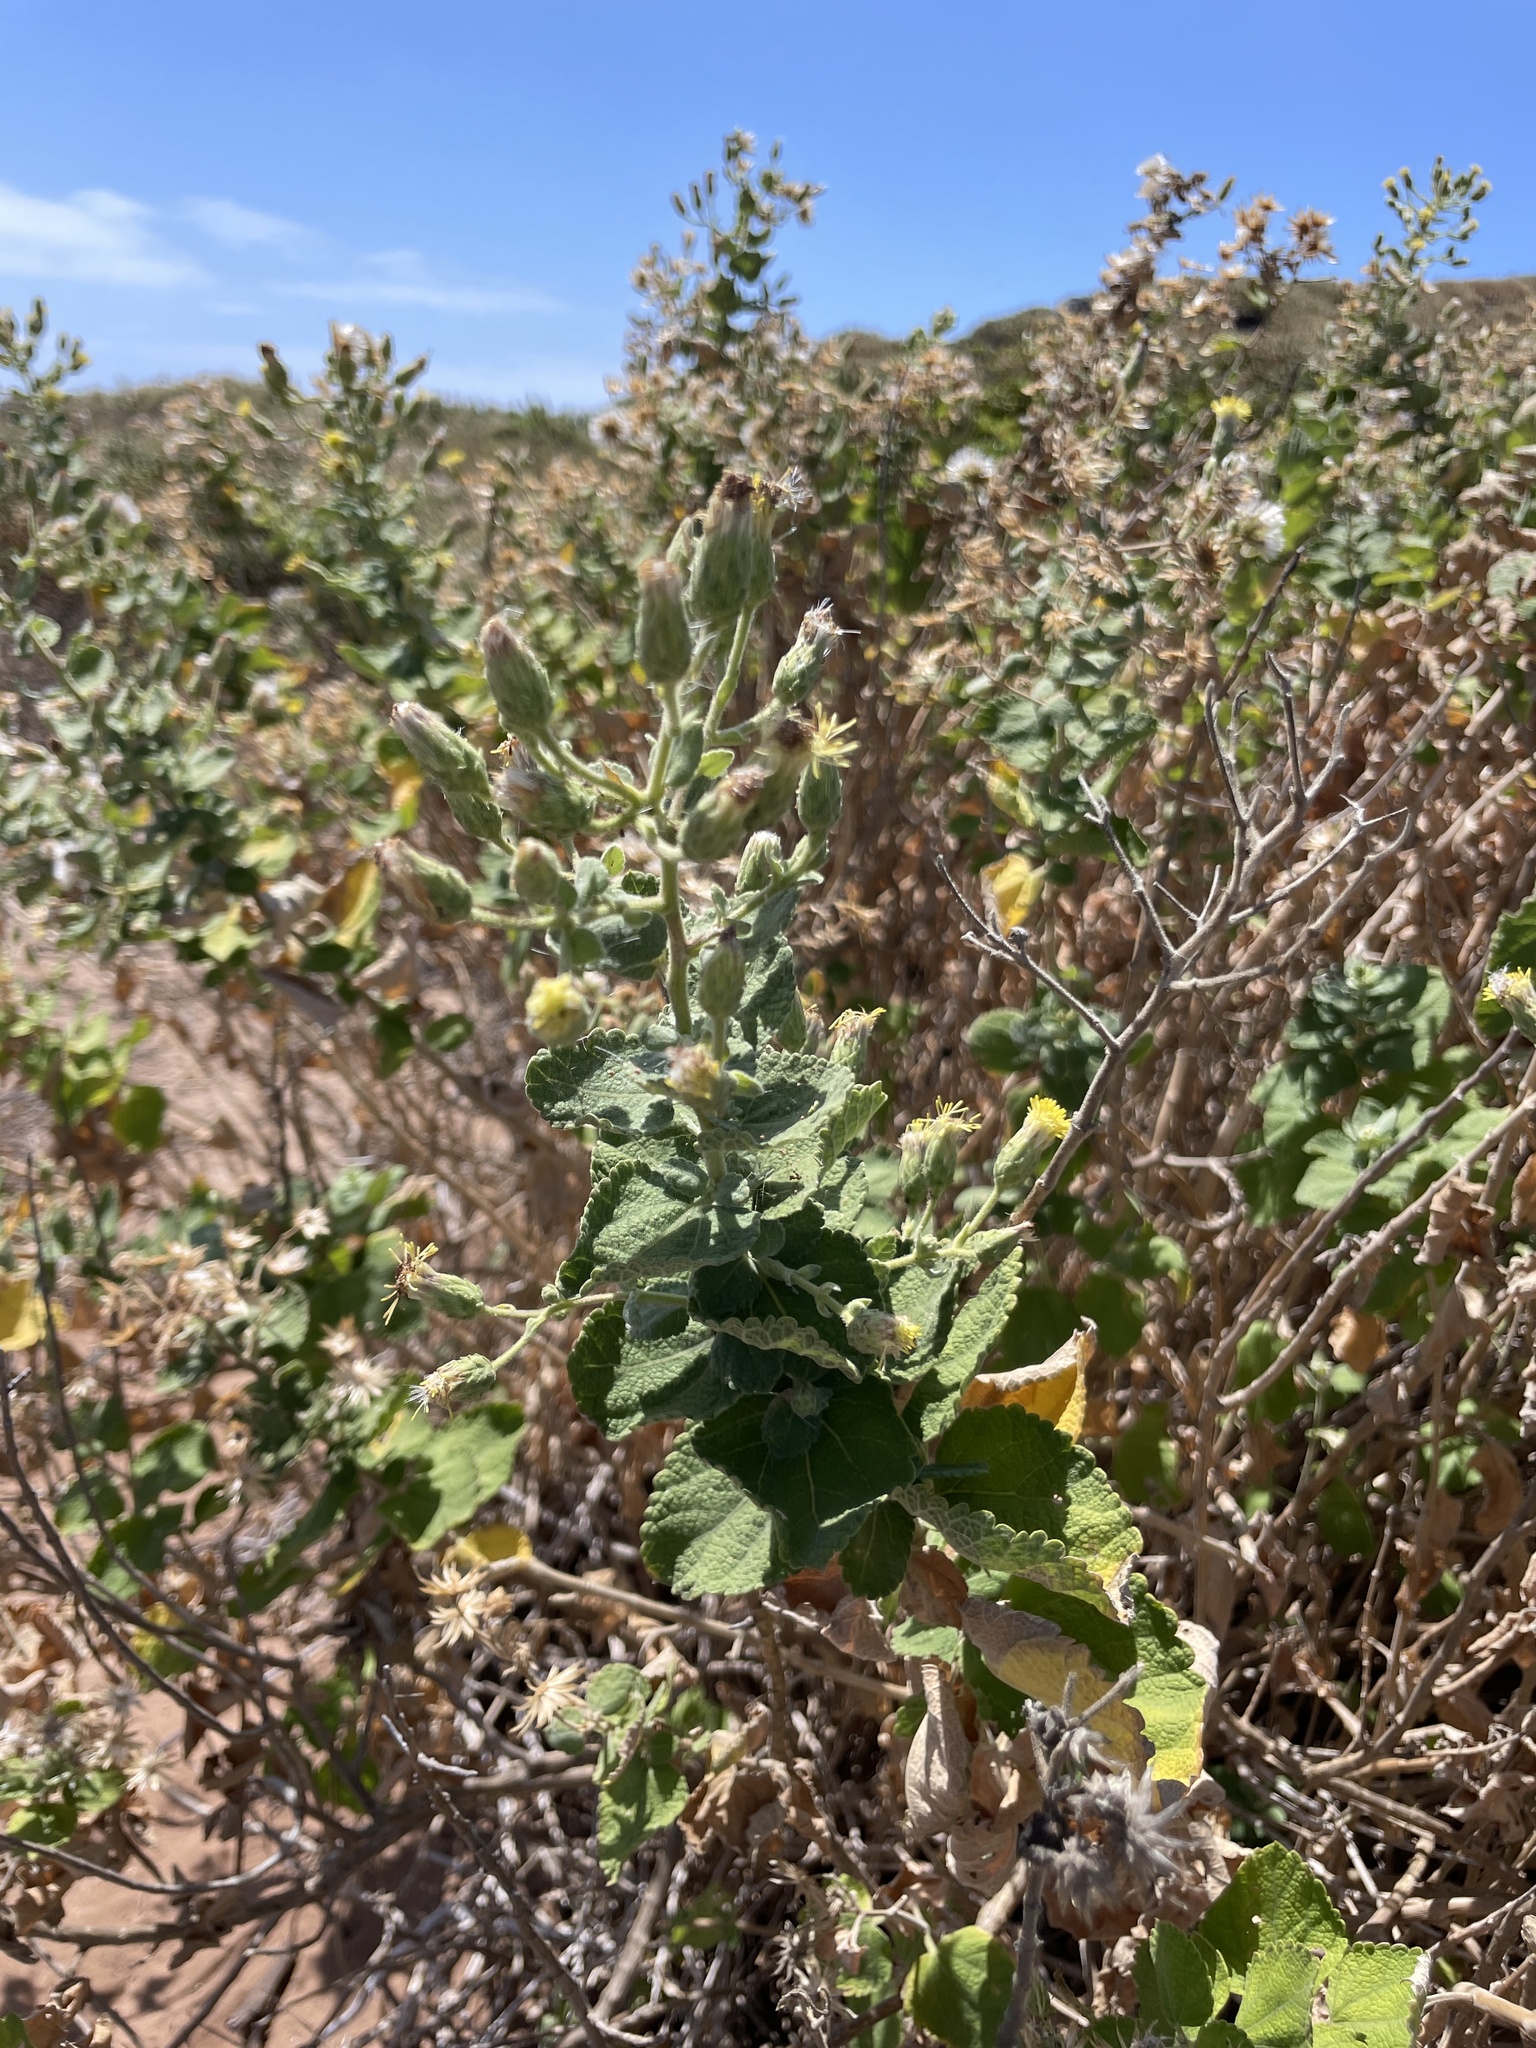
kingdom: Plantae
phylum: Tracheophyta
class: Magnoliopsida
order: Asterales
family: Asteraceae
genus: Brickellia
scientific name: Brickellia peninsularis
